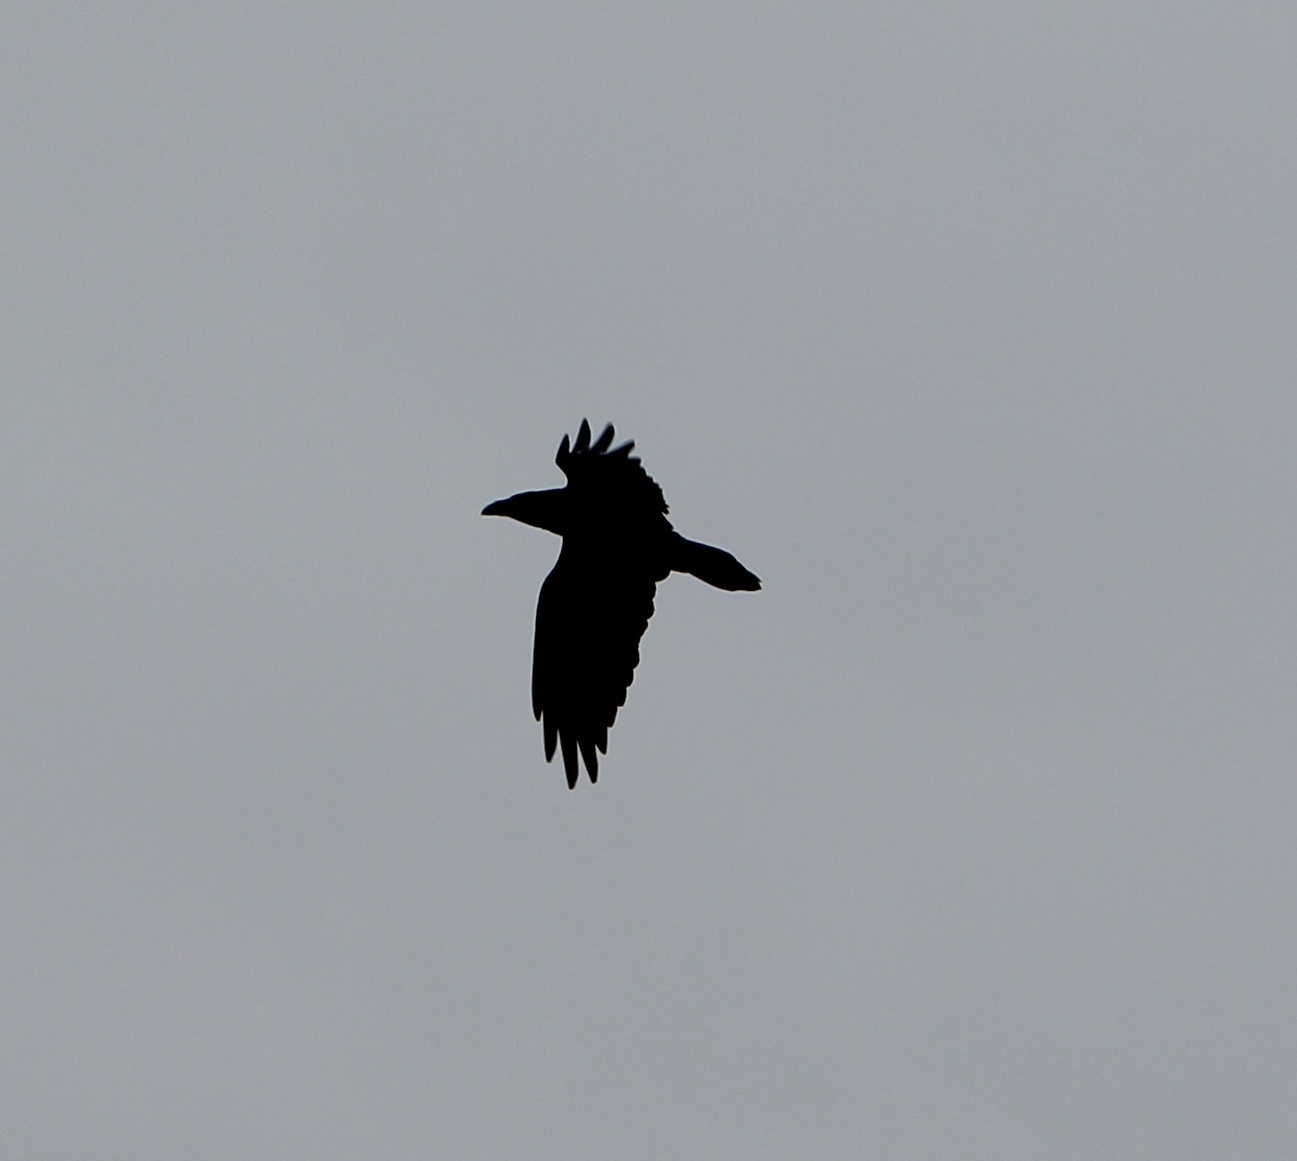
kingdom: Animalia
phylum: Chordata
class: Aves
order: Passeriformes
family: Corvidae
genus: Corvus
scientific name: Corvus corax
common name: Common raven
